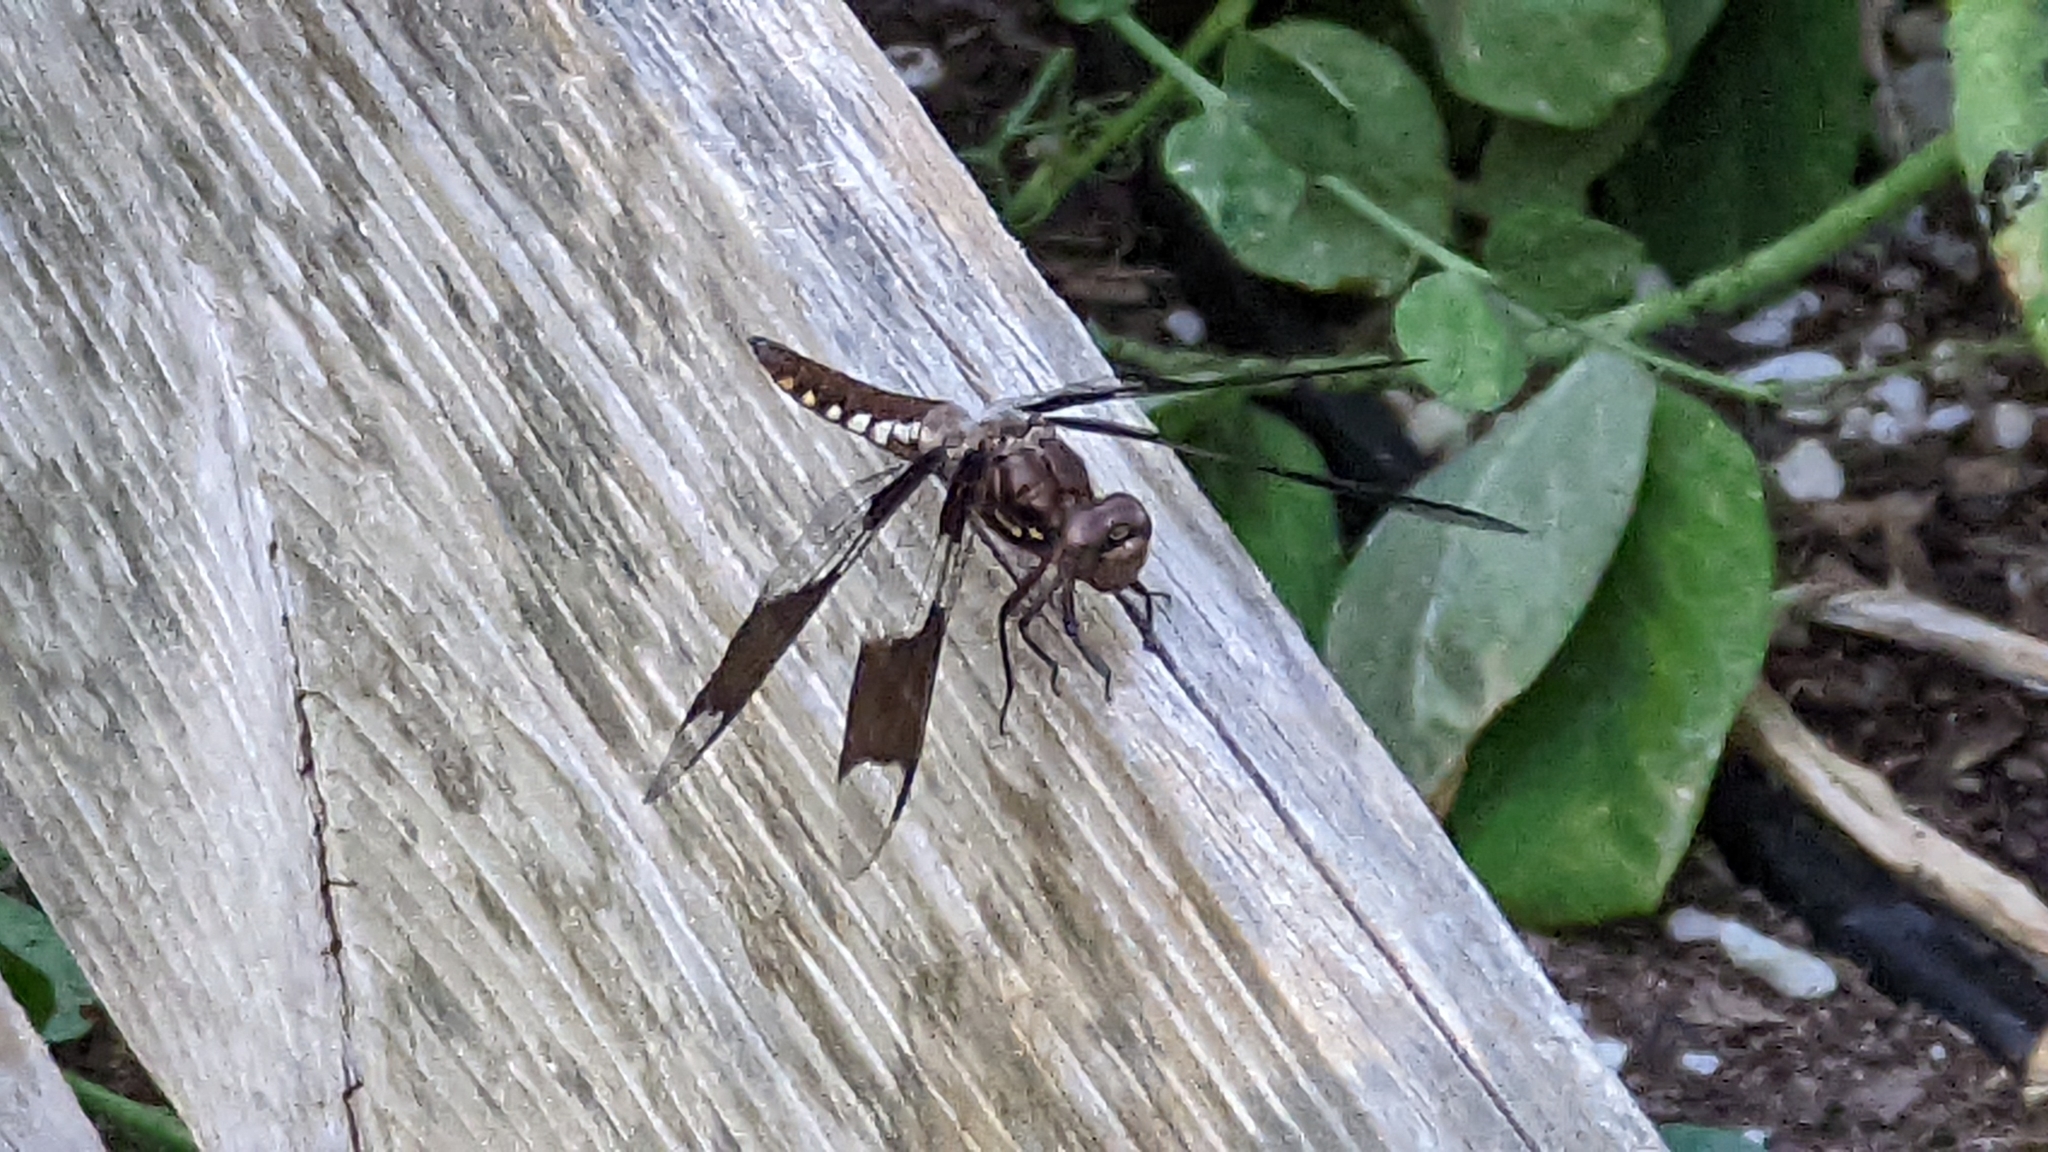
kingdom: Animalia
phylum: Arthropoda
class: Insecta
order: Odonata
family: Libellulidae
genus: Plathemis
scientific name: Plathemis lydia
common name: Common whitetail
